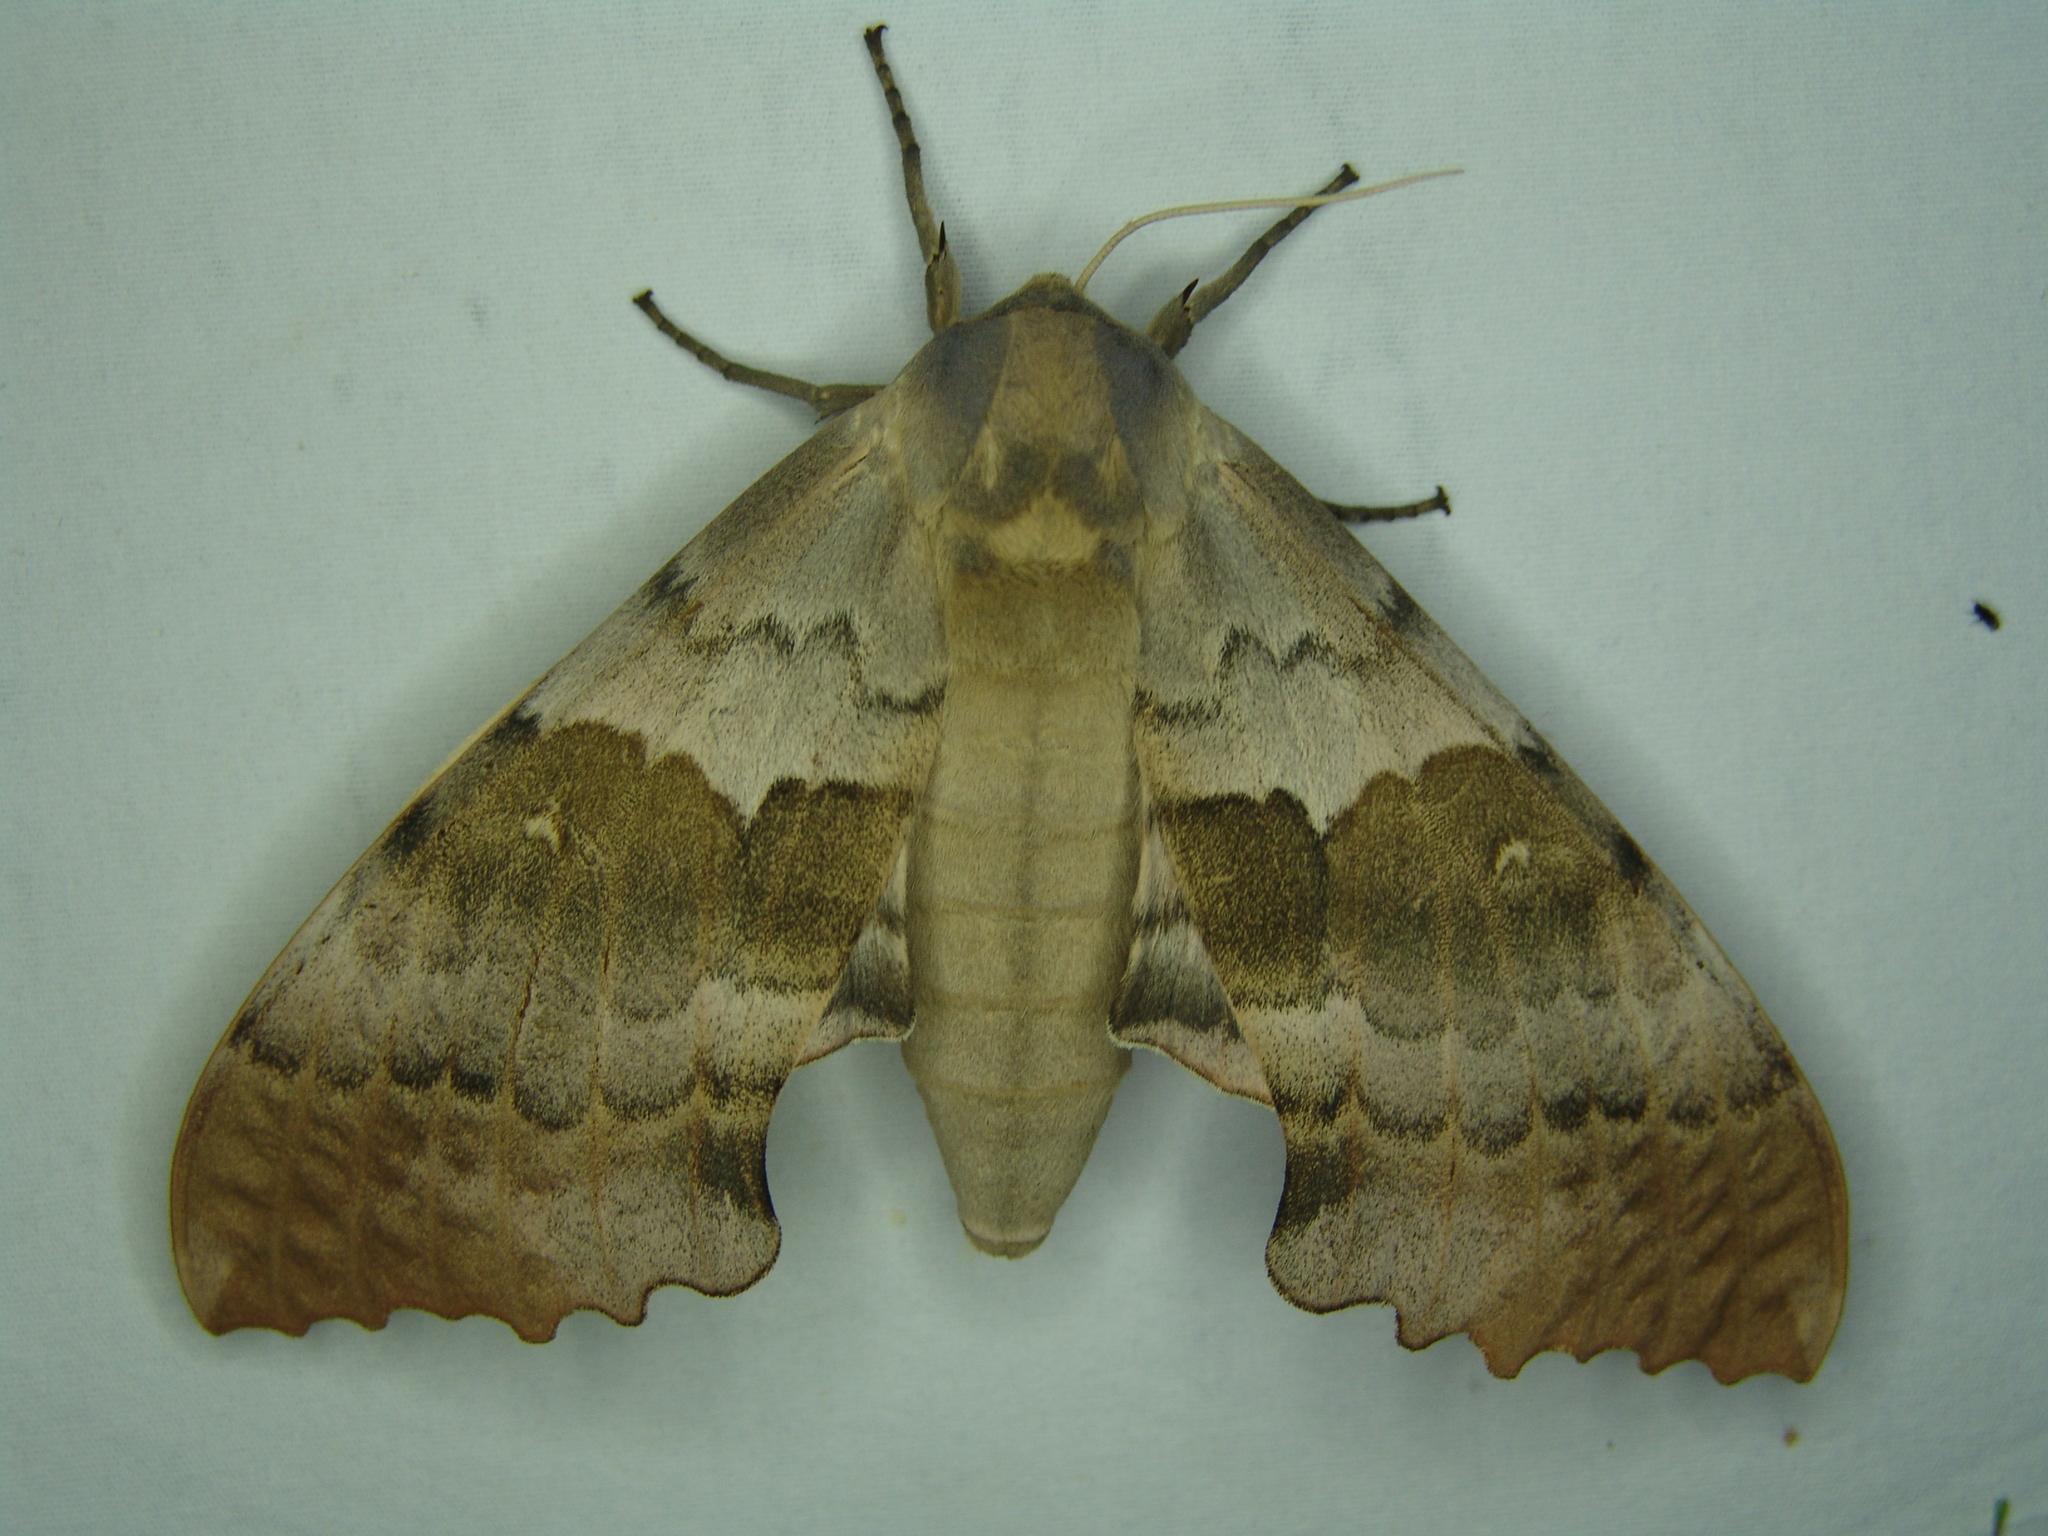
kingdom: Animalia
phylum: Arthropoda
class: Insecta
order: Lepidoptera
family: Sphingidae
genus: Pachysphinx
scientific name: Pachysphinx occidentalis
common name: Western poplar sphinx
